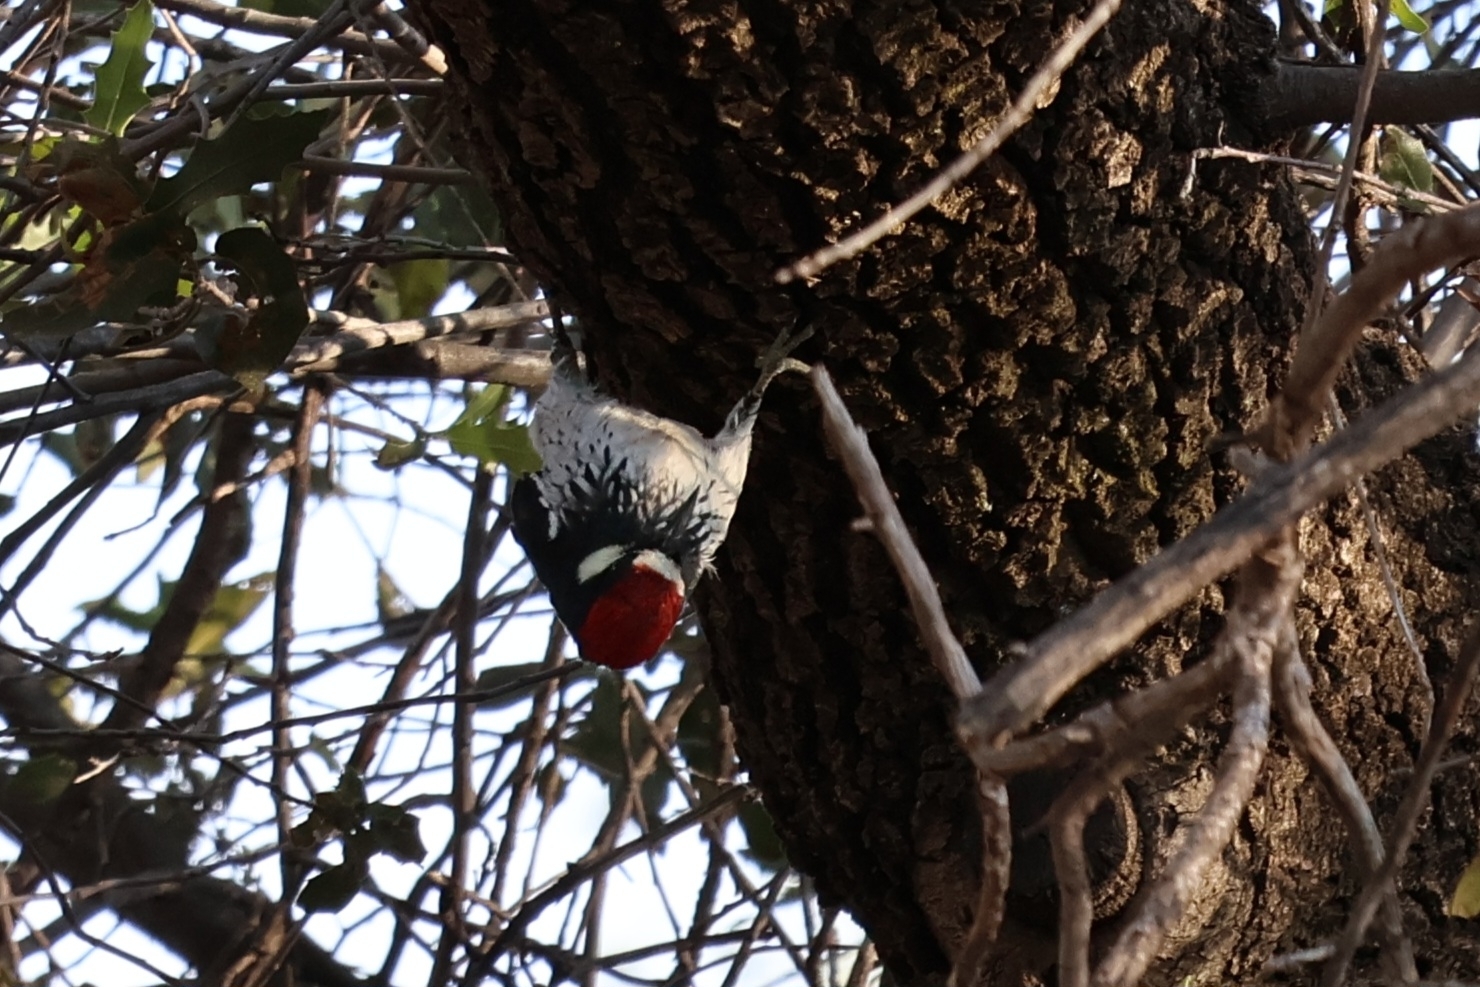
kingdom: Animalia
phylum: Chordata
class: Aves
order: Piciformes
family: Picidae
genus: Melanerpes
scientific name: Melanerpes formicivorus
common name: Acorn woodpecker
